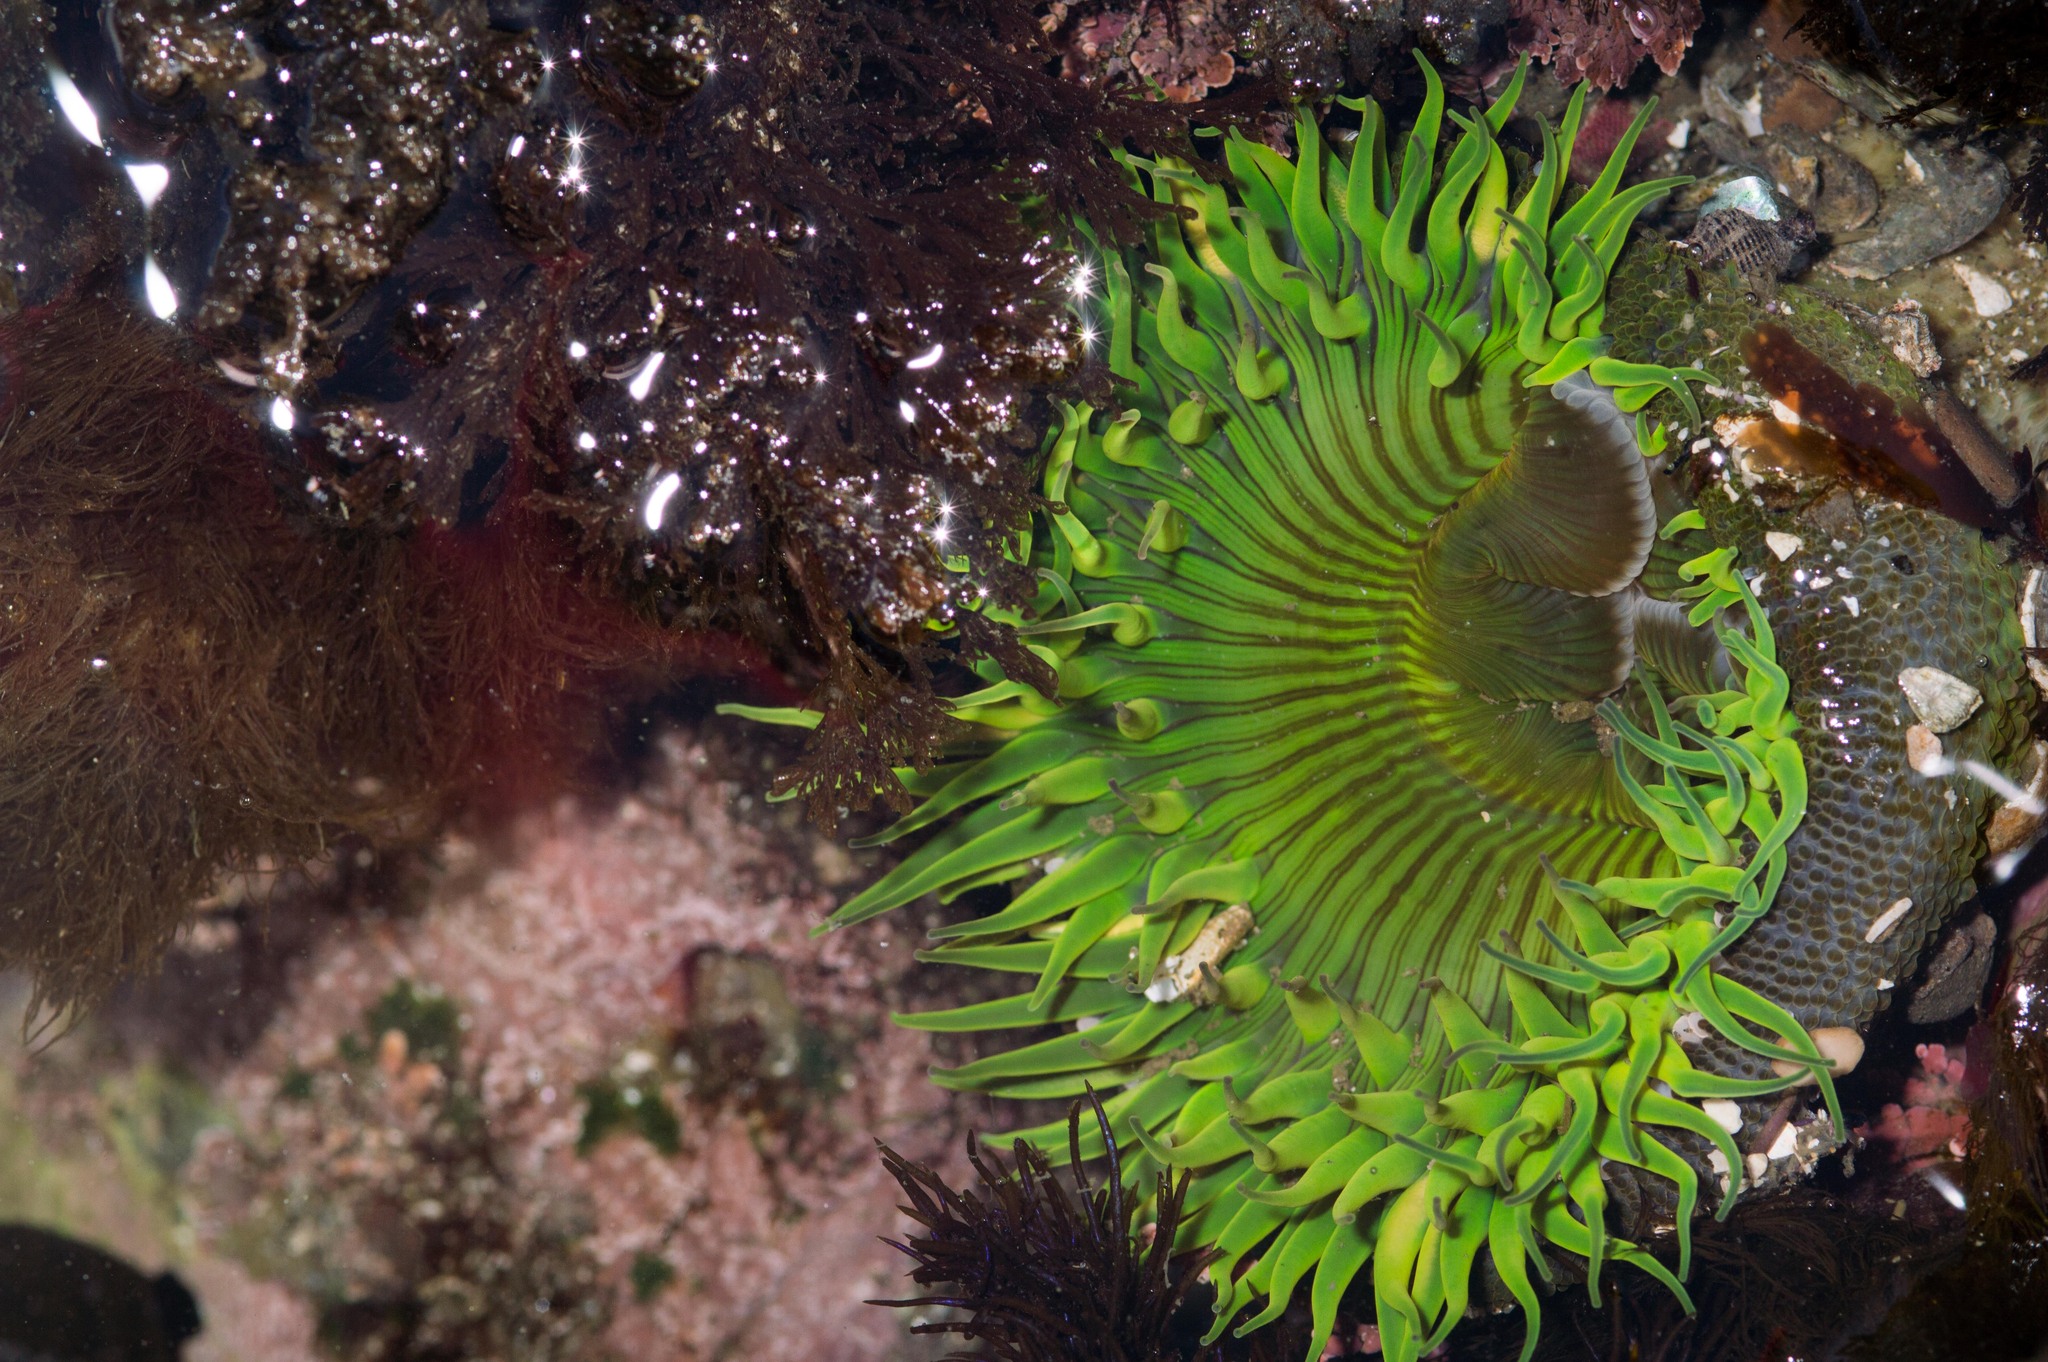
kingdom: Animalia
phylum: Cnidaria
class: Anthozoa
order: Actiniaria
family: Actiniidae
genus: Anthopleura
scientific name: Anthopleura sola
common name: Sun anemone
